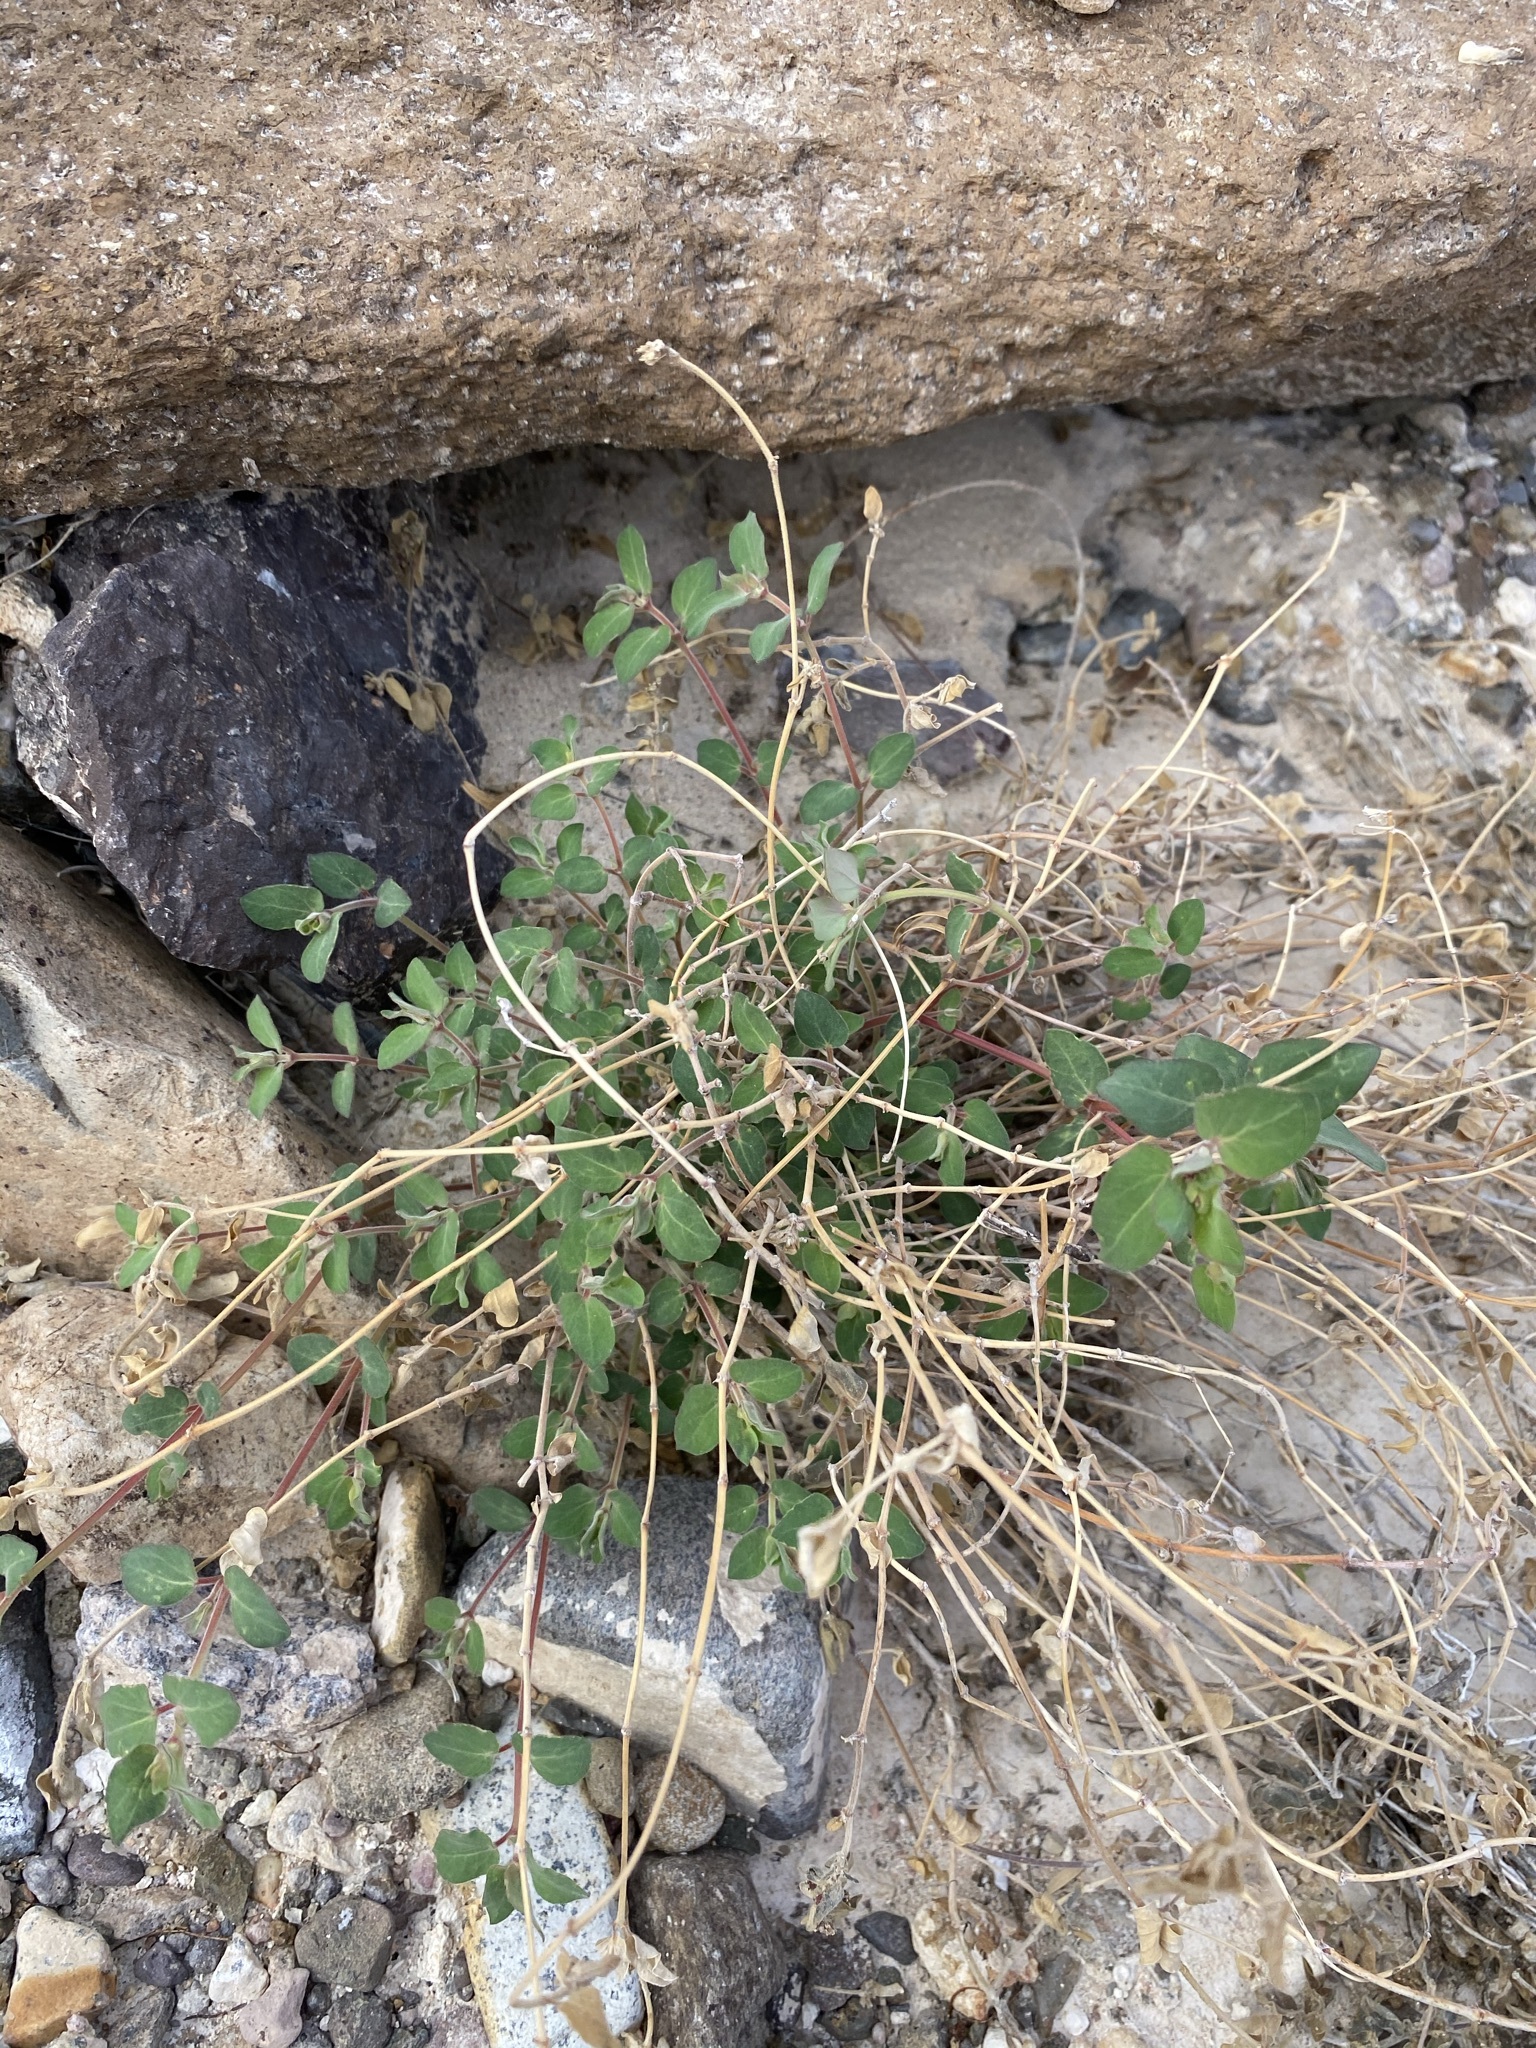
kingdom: Plantae
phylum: Tracheophyta
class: Magnoliopsida
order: Malpighiales
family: Euphorbiaceae
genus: Euphorbia
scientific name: Euphorbia capitellata
